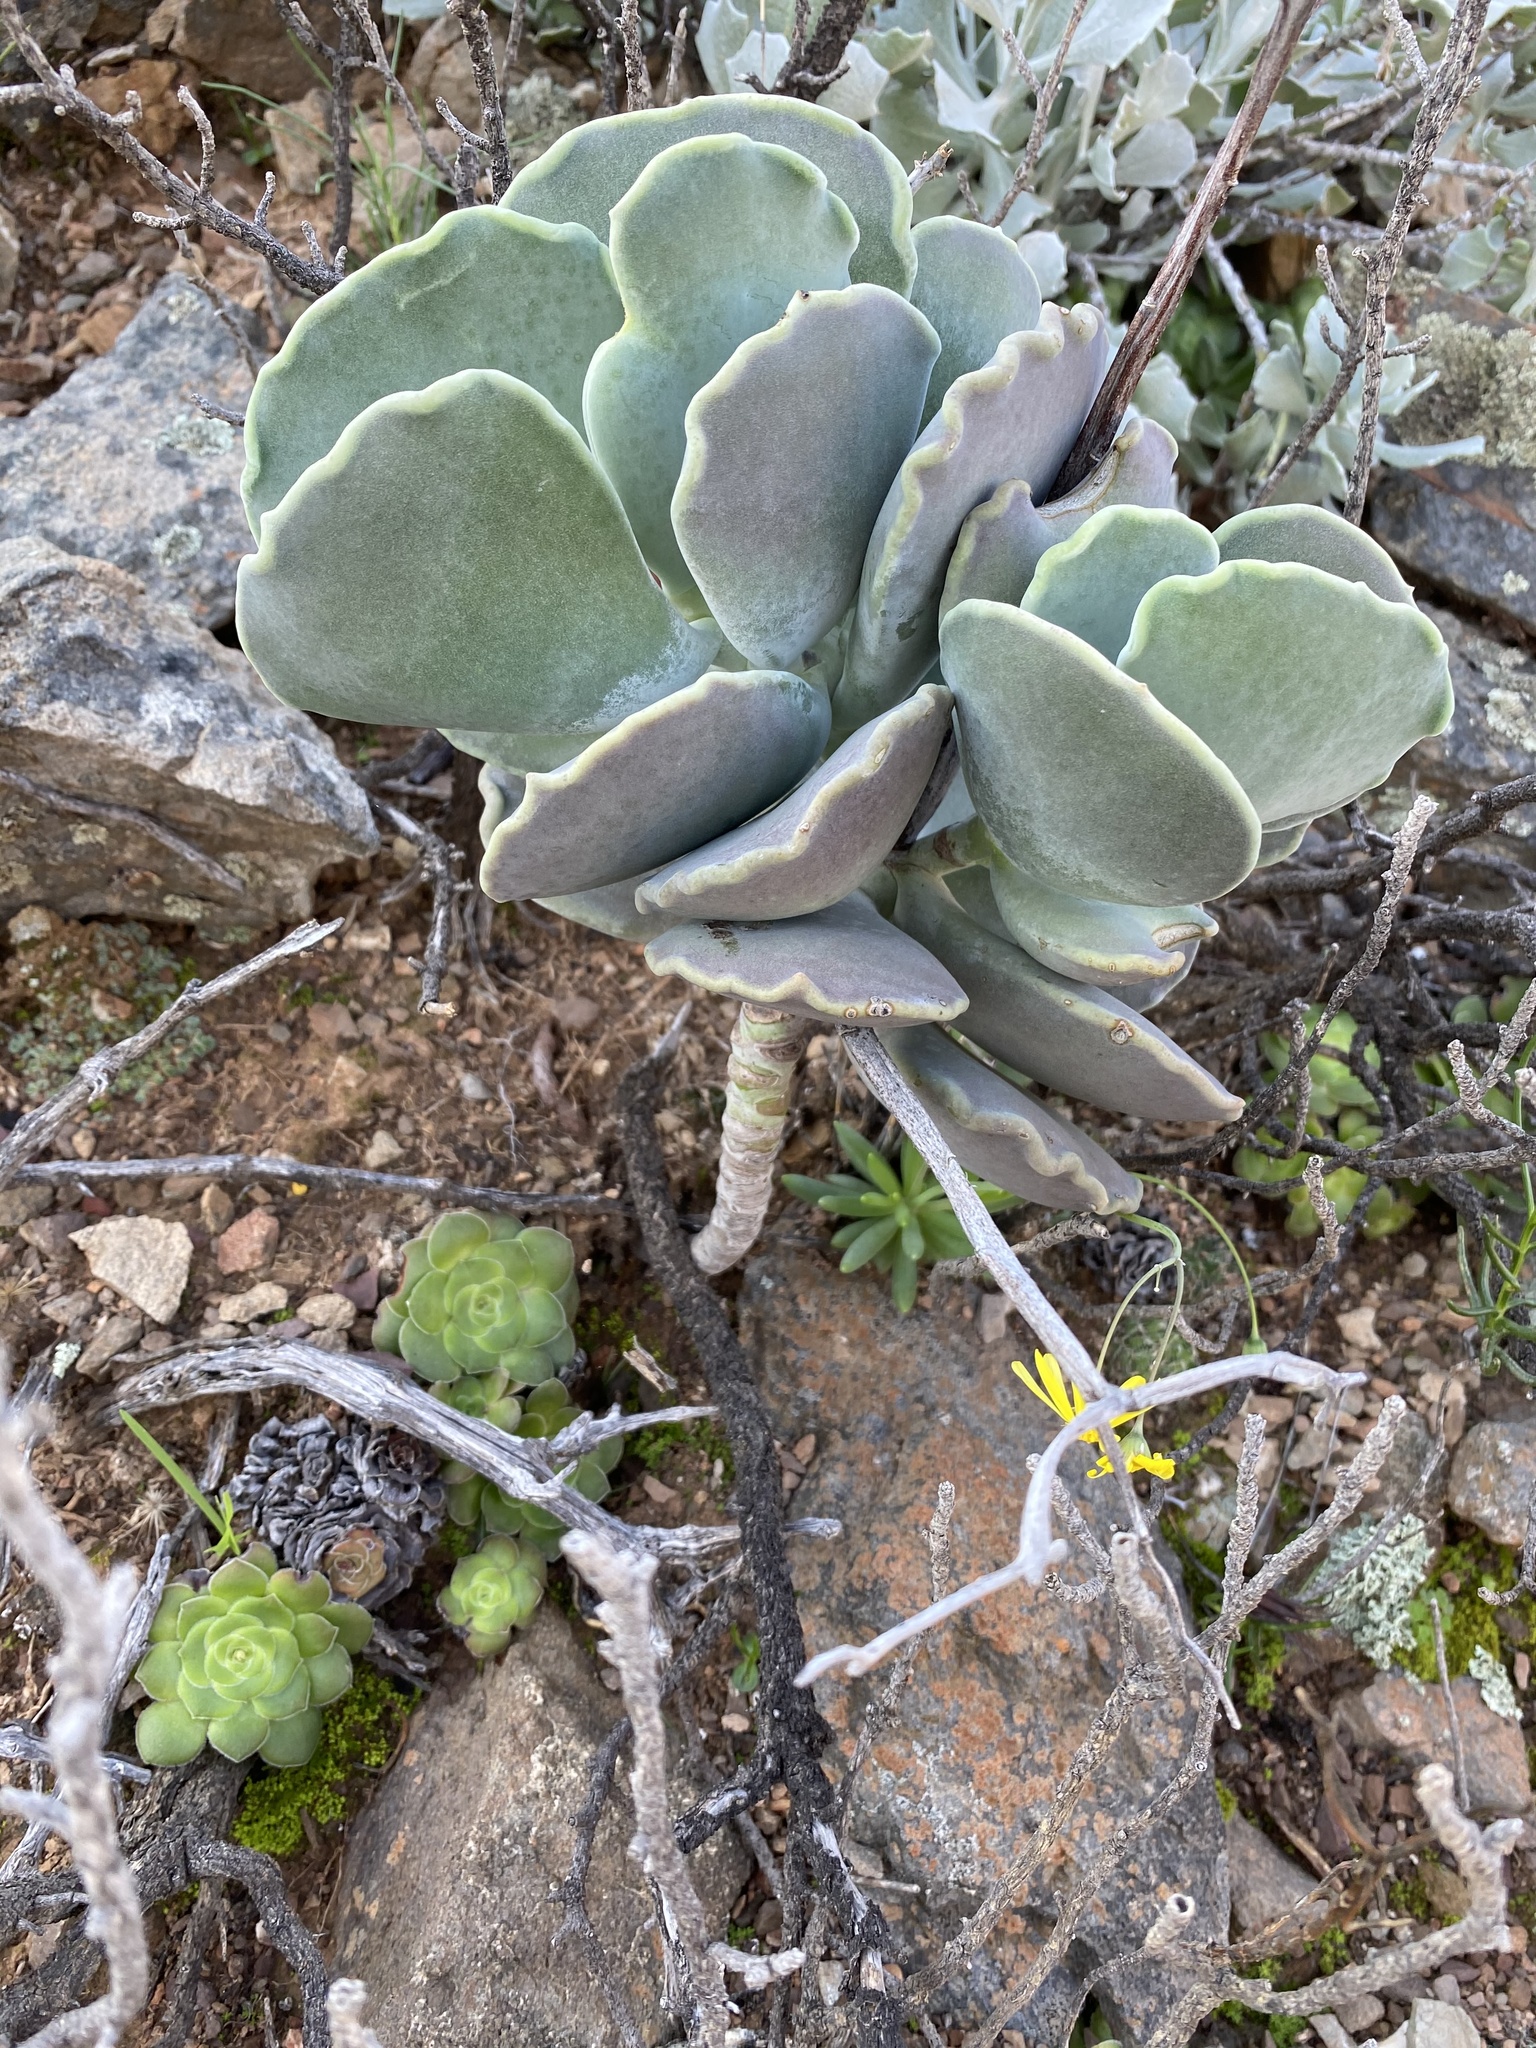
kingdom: Plantae
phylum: Tracheophyta
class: Magnoliopsida
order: Saxifragales
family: Crassulaceae
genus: Cotyledon
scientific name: Cotyledon orbiculata
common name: Pig's ear
